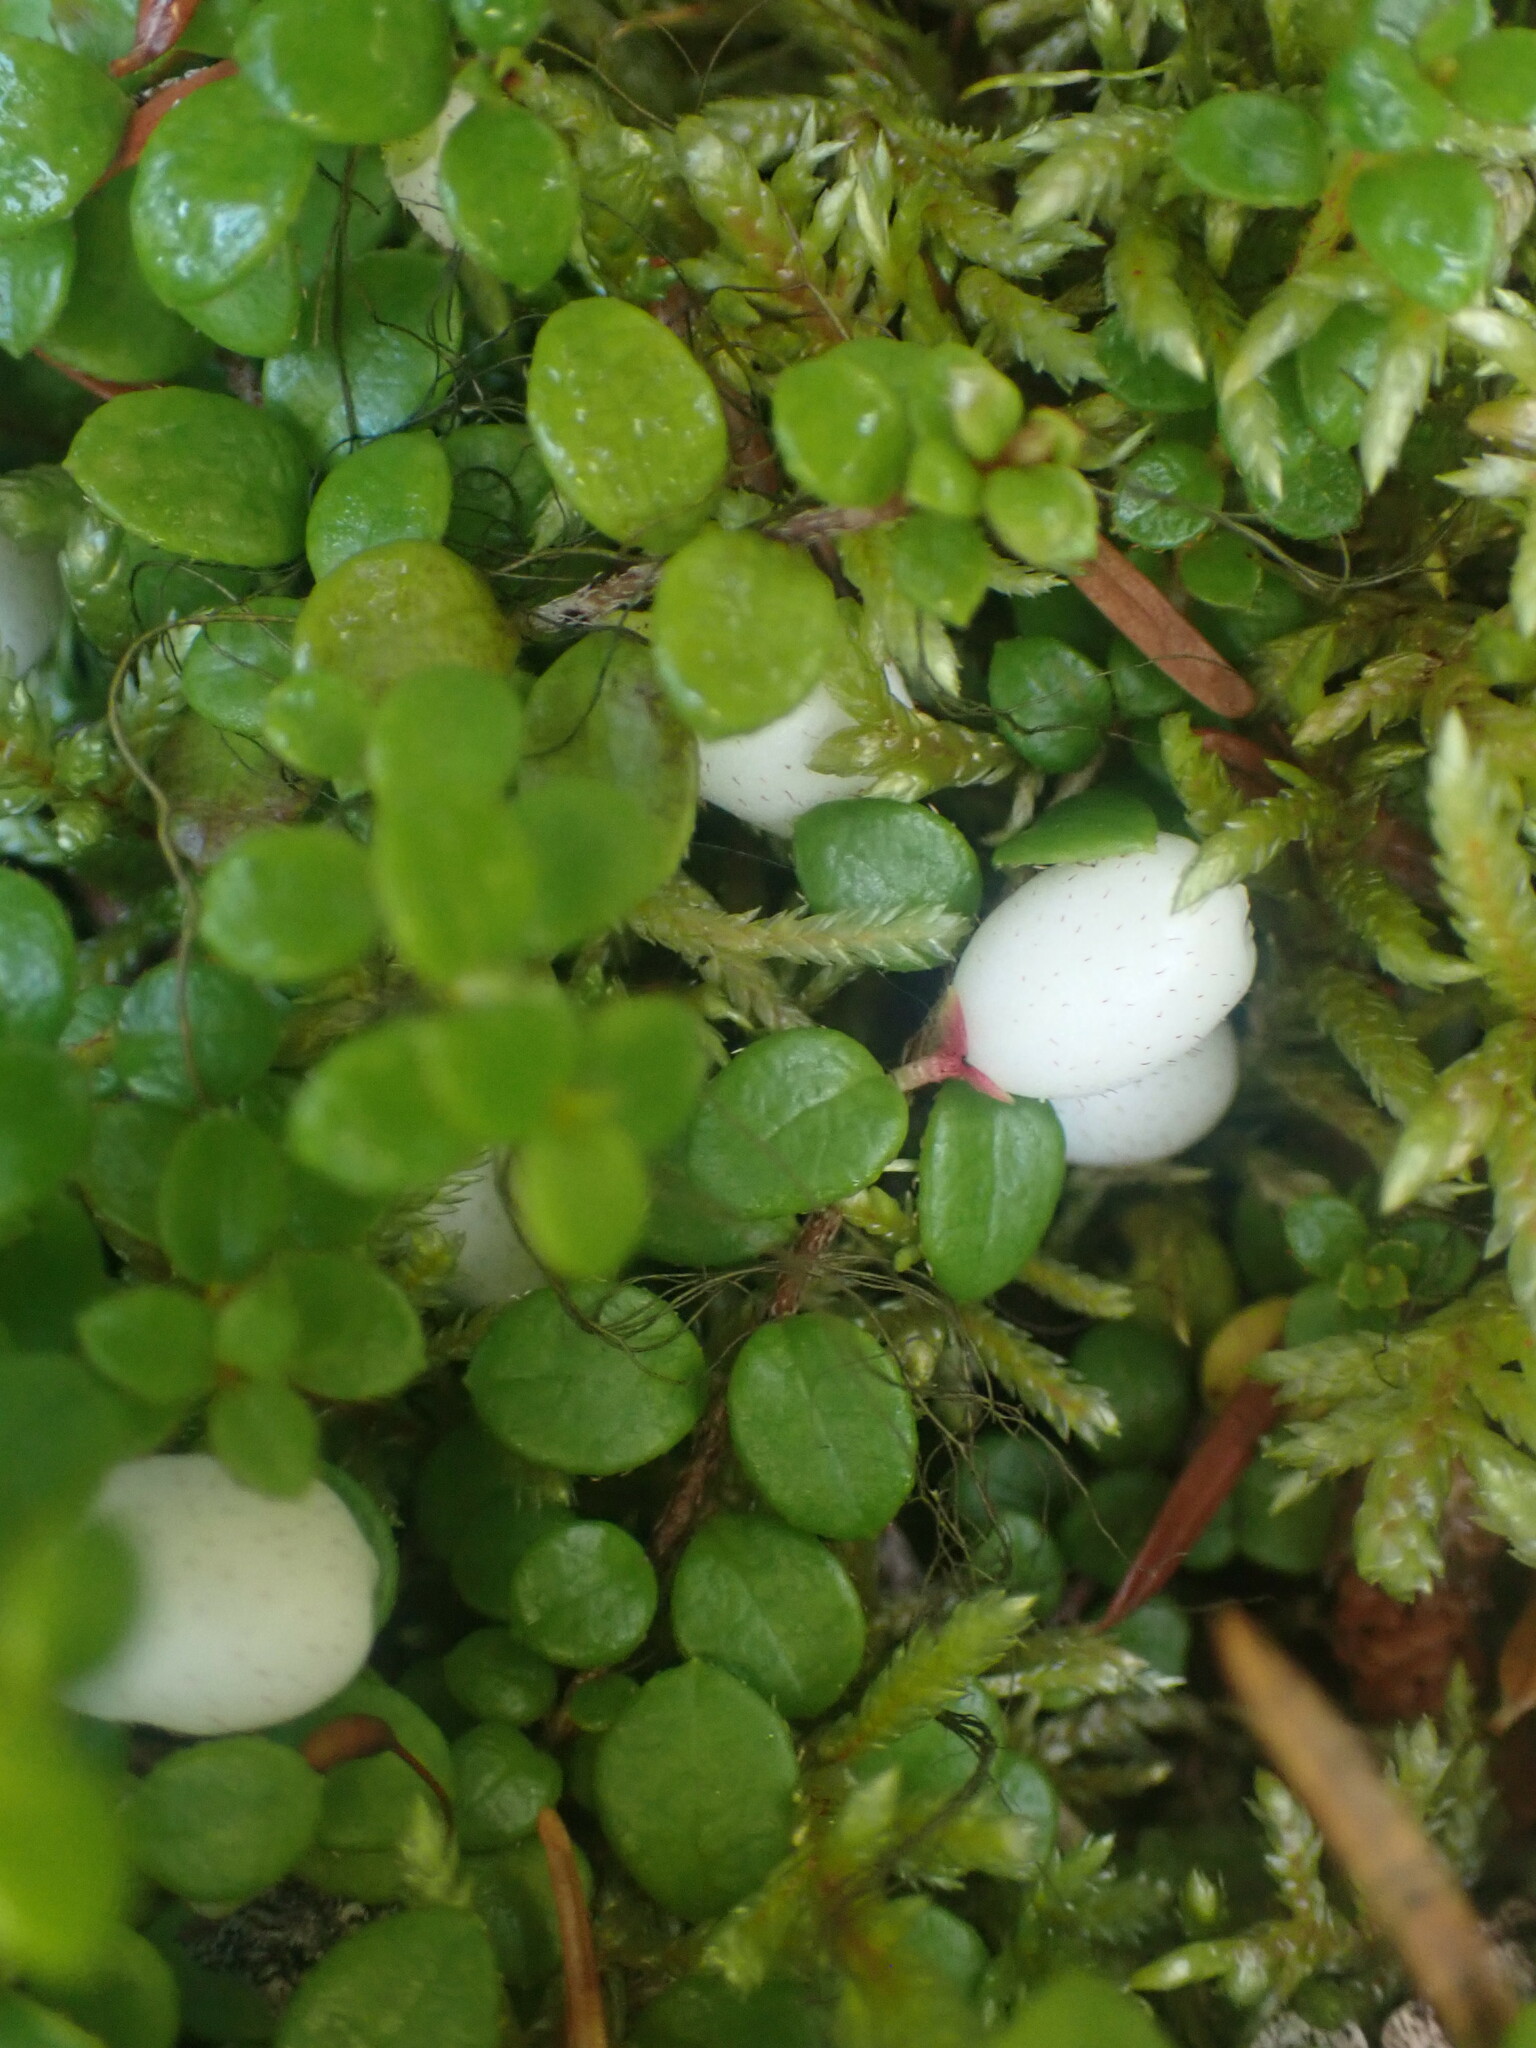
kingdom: Plantae
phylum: Tracheophyta
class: Magnoliopsida
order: Ericales
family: Ericaceae
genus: Gaultheria
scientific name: Gaultheria hispidula
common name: Cancer wintergreen
